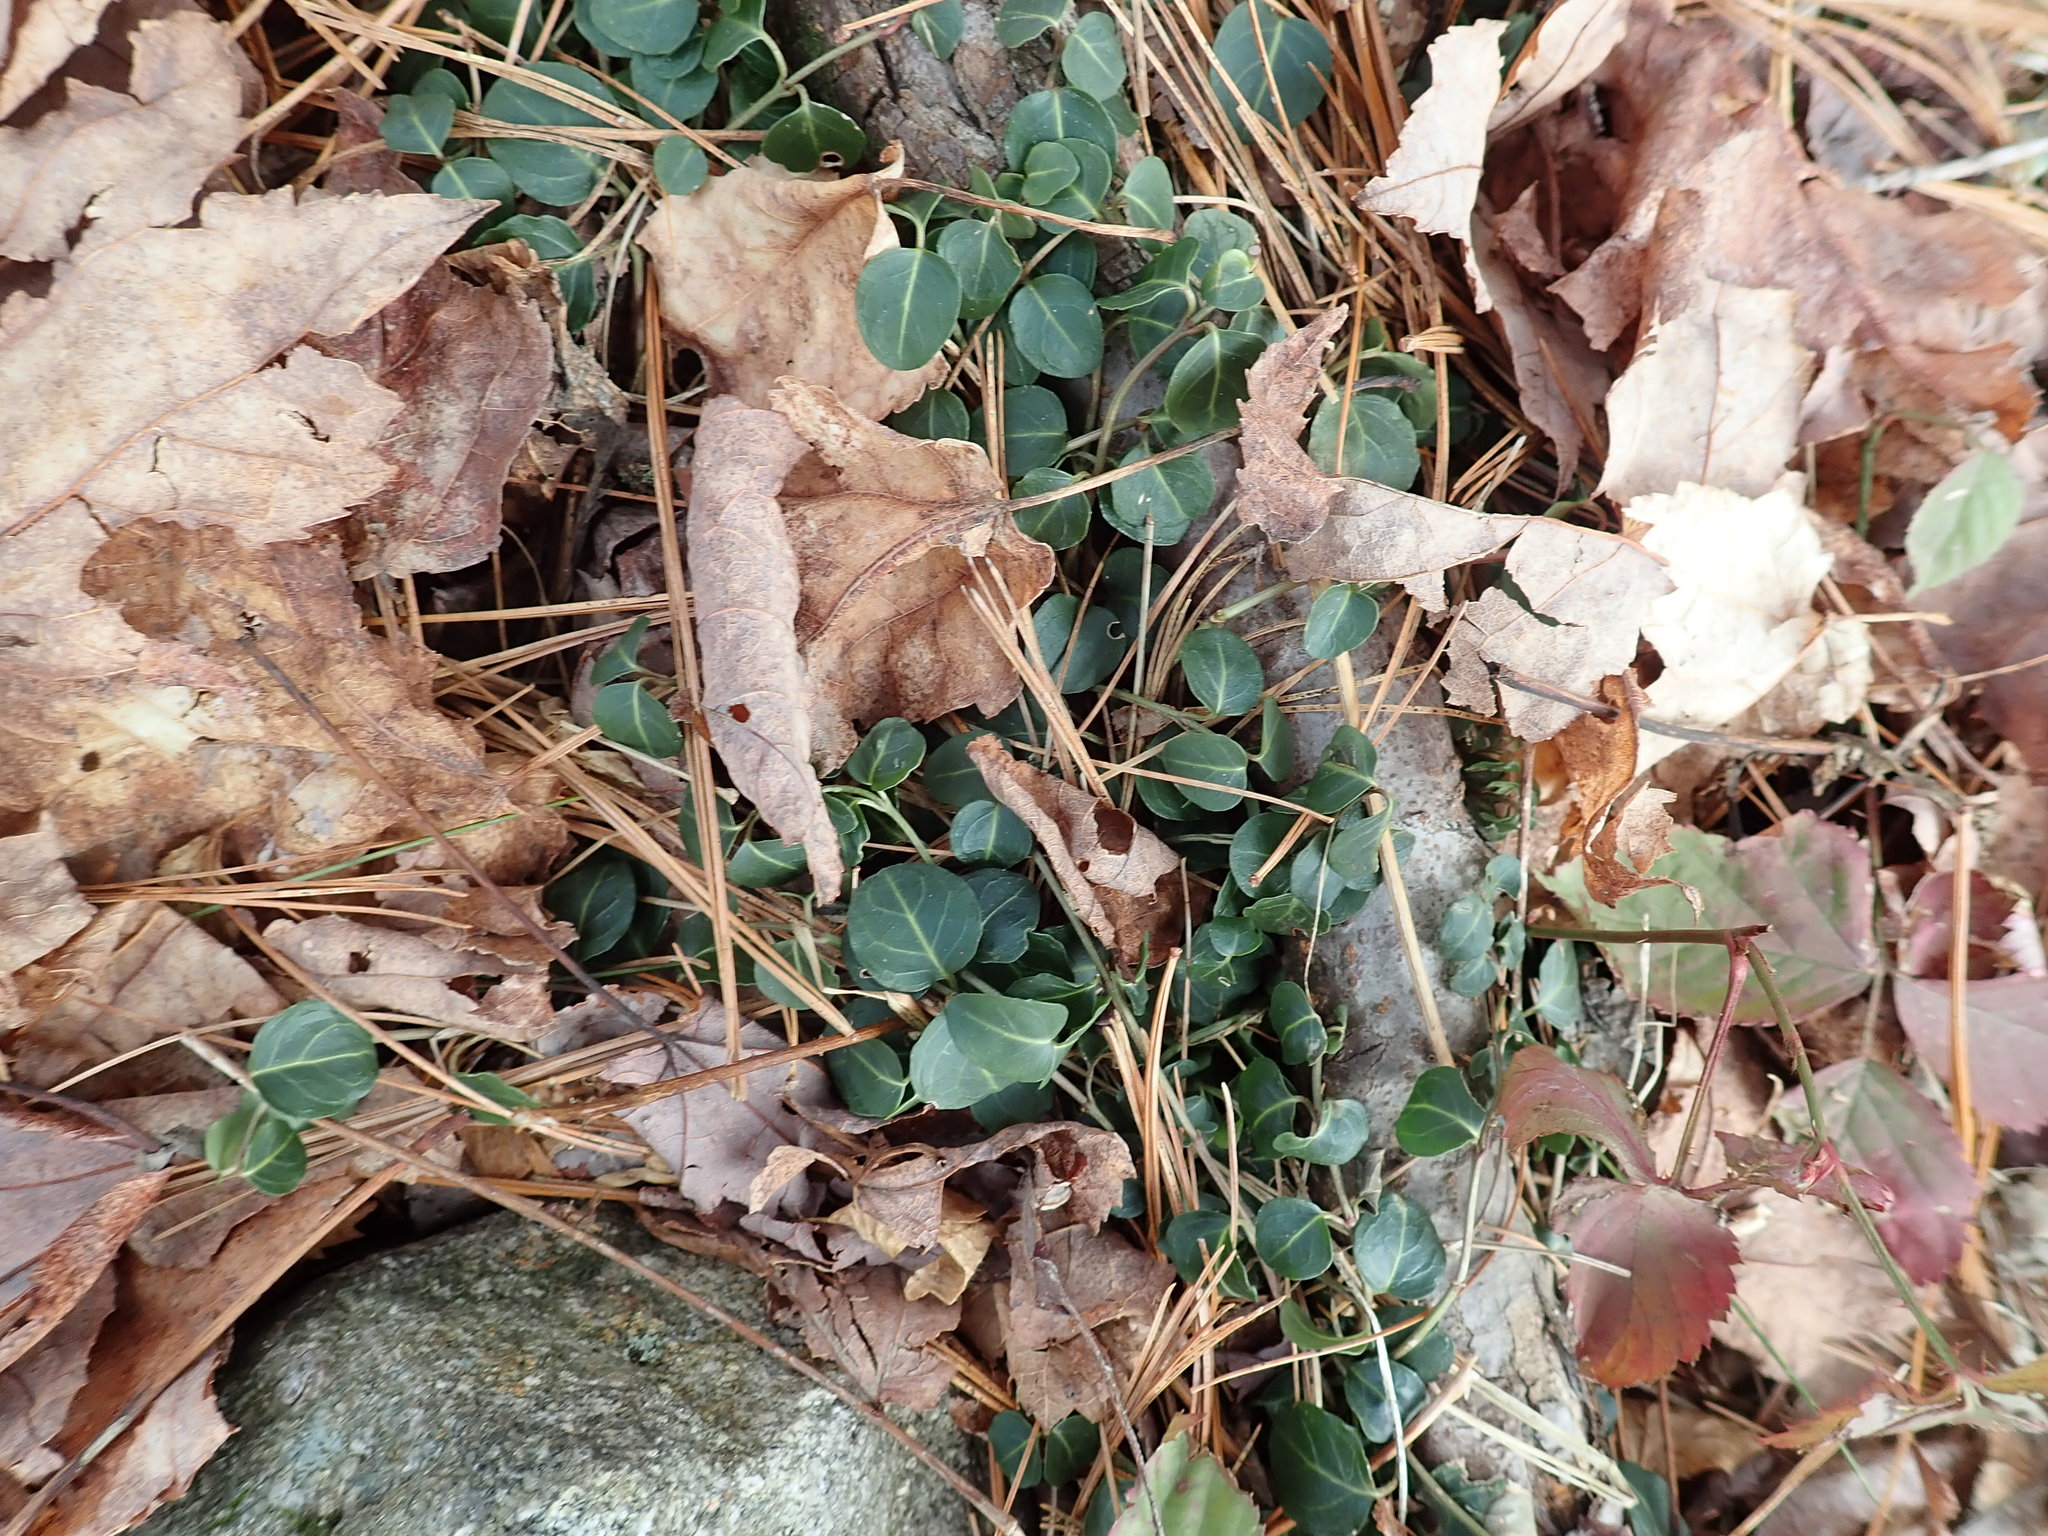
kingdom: Plantae
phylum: Tracheophyta
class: Magnoliopsida
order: Gentianales
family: Rubiaceae
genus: Mitchella
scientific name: Mitchella repens
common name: Partridge-berry
